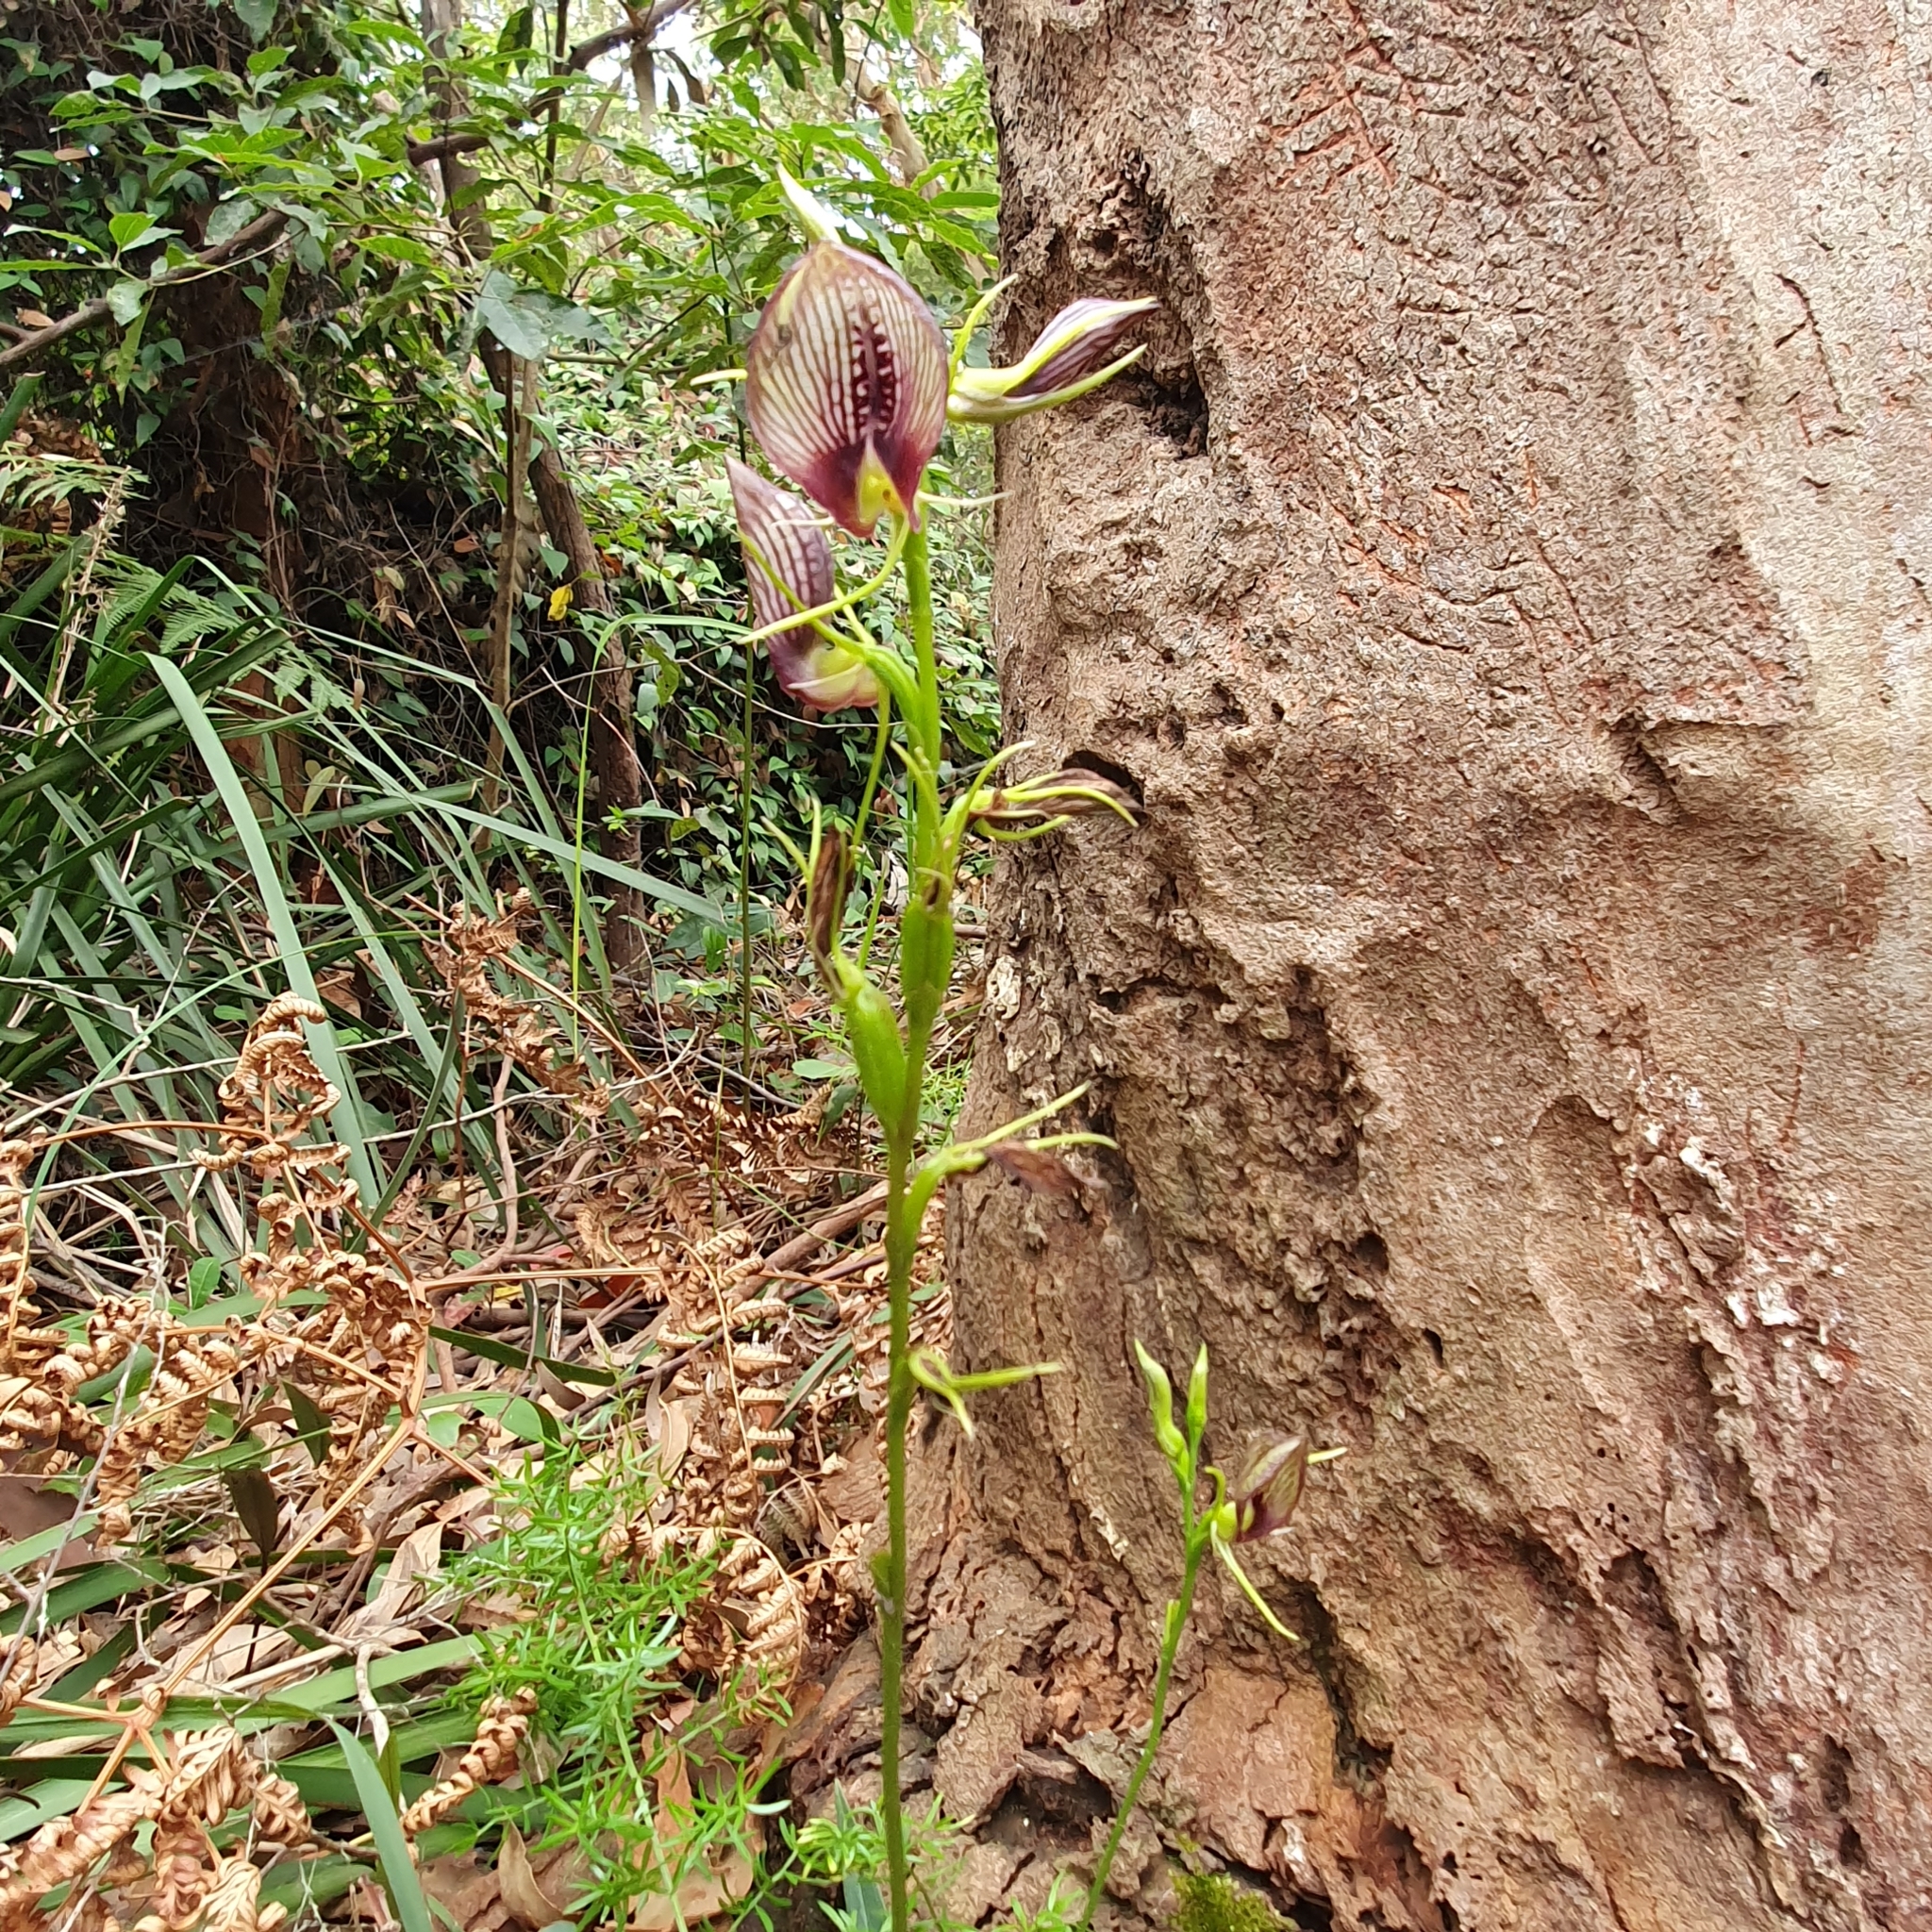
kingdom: Plantae
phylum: Tracheophyta
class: Liliopsida
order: Asparagales
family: Orchidaceae
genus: Cryptostylis
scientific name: Cryptostylis erecta
